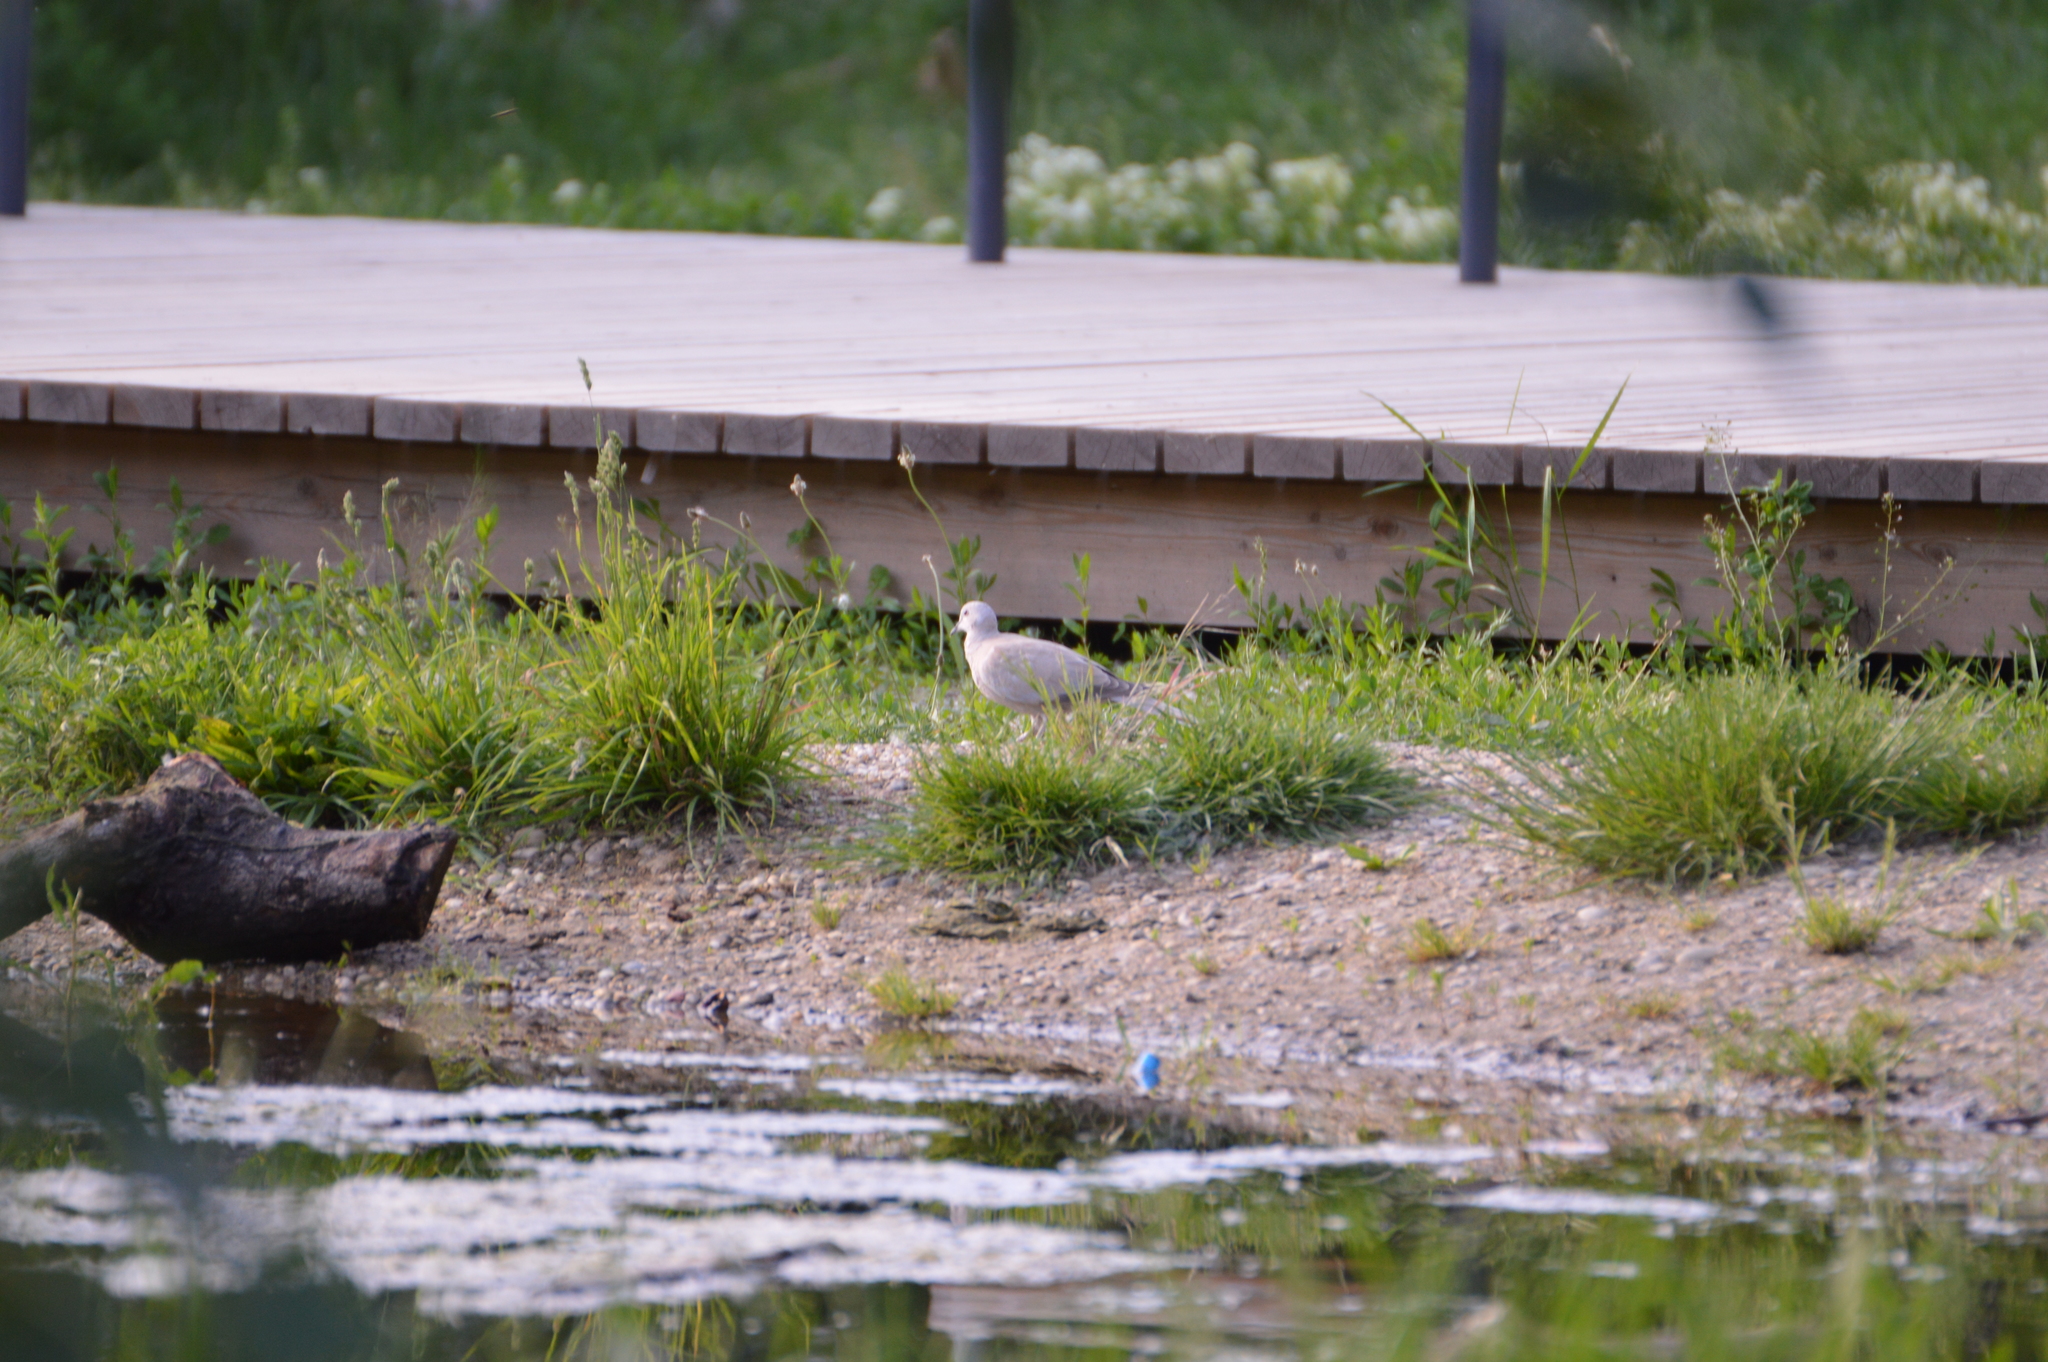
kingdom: Animalia
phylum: Chordata
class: Aves
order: Columbiformes
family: Columbidae
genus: Streptopelia
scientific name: Streptopelia decaocto
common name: Eurasian collared dove
